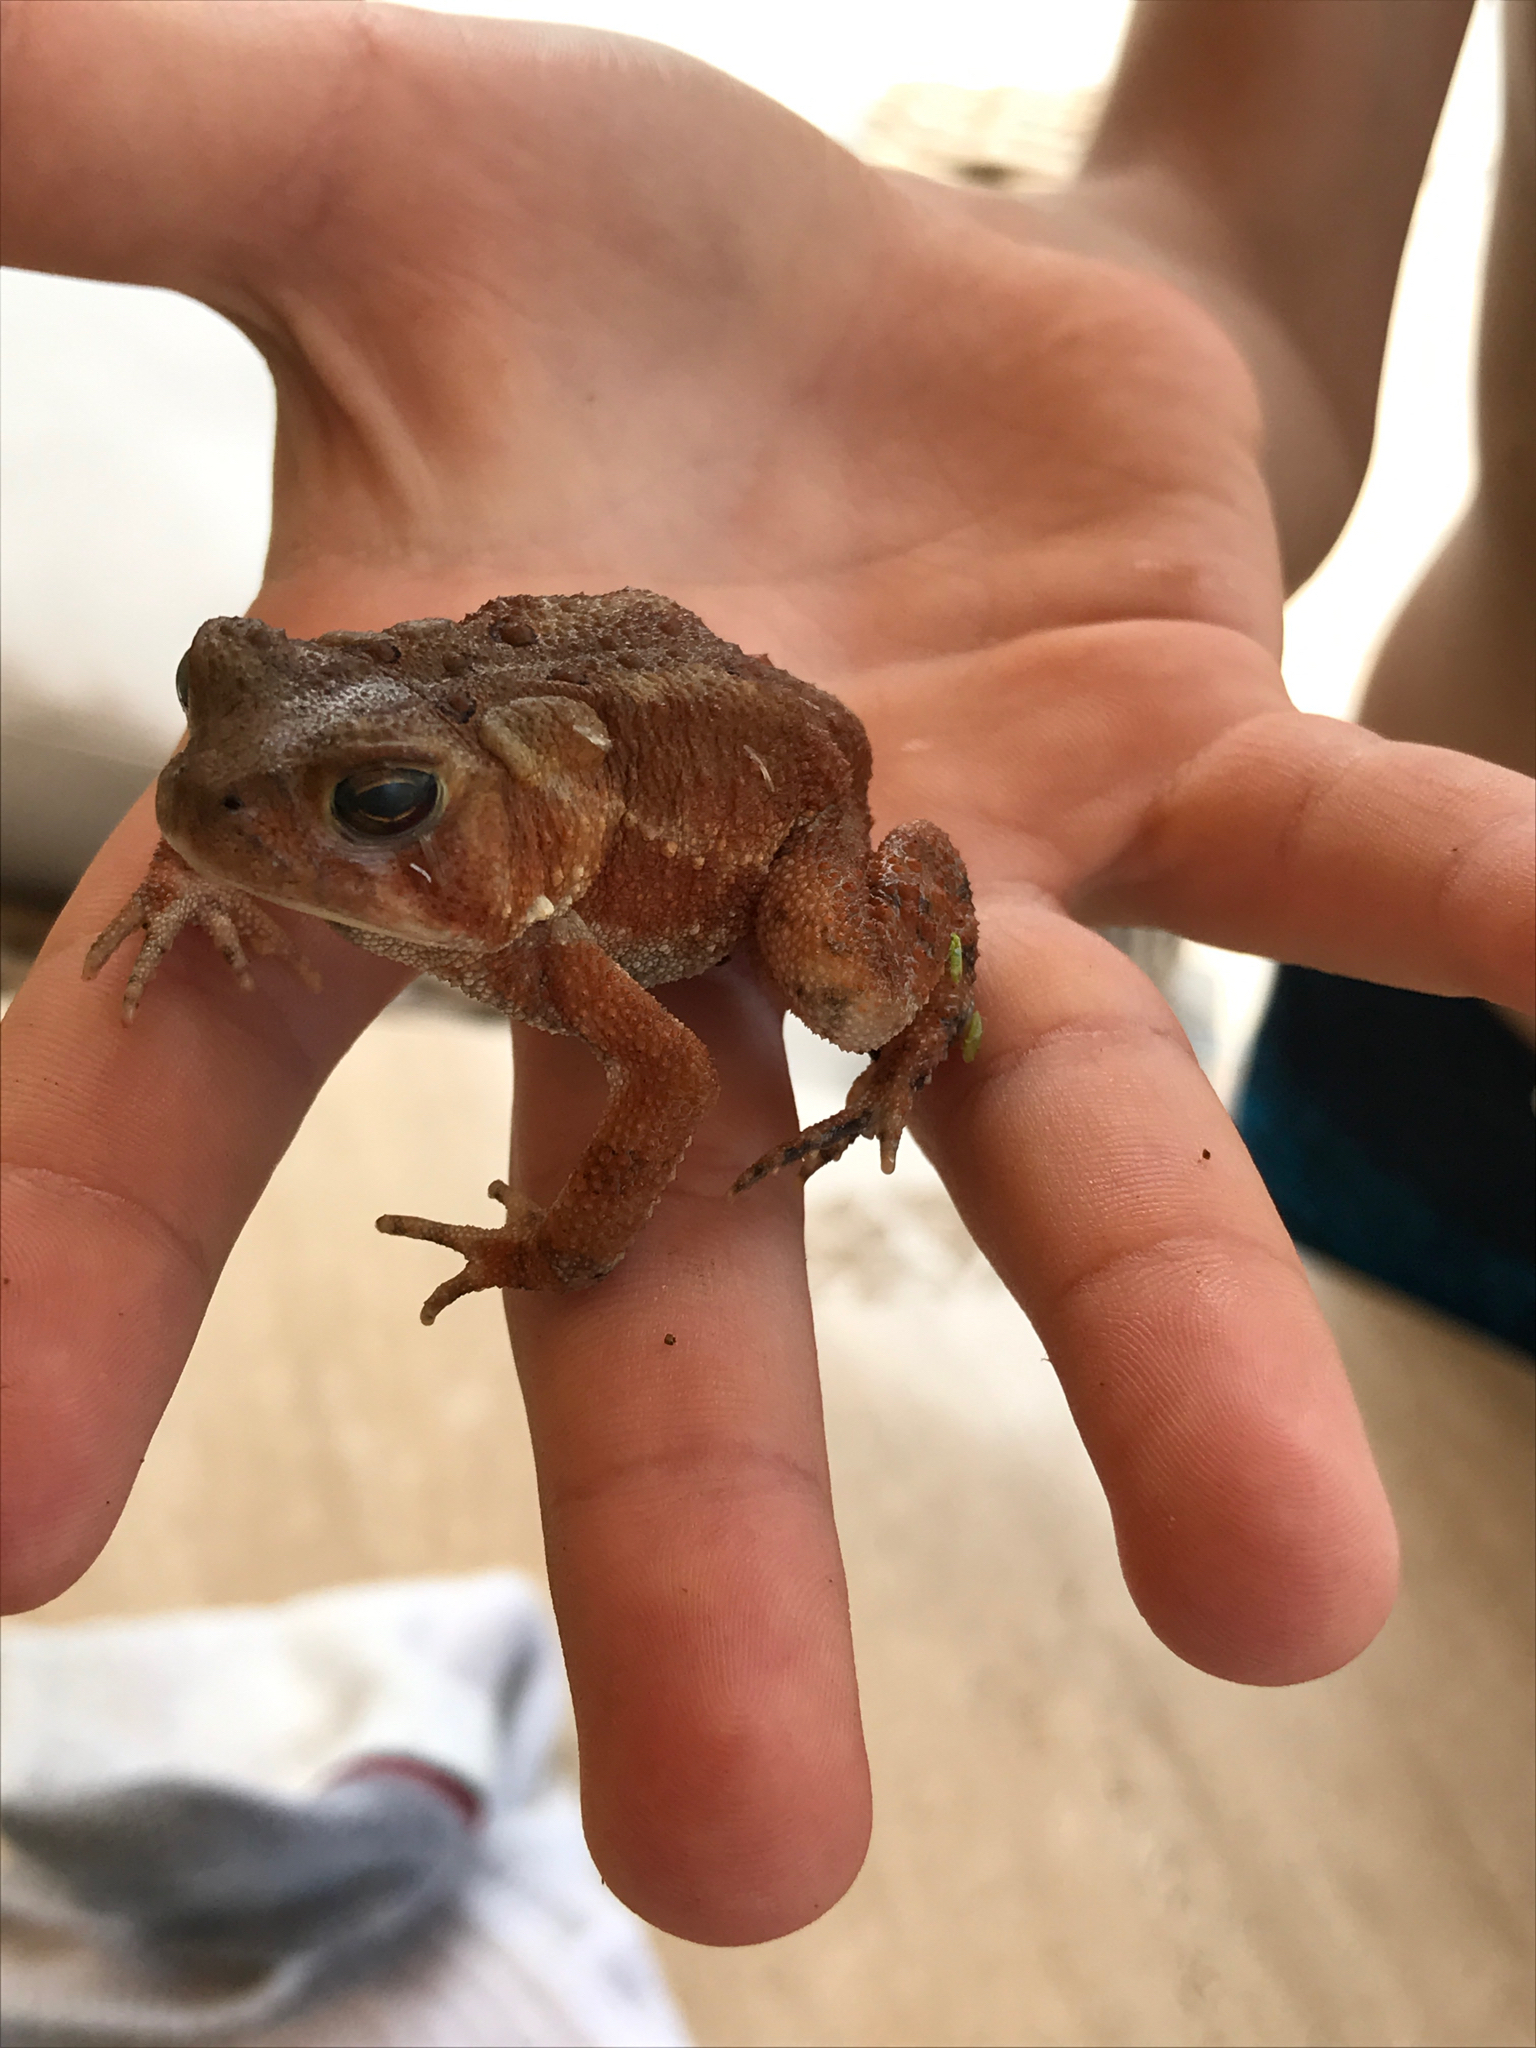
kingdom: Animalia
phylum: Chordata
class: Amphibia
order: Anura
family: Bufonidae
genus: Anaxyrus
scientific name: Anaxyrus americanus
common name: American toad
